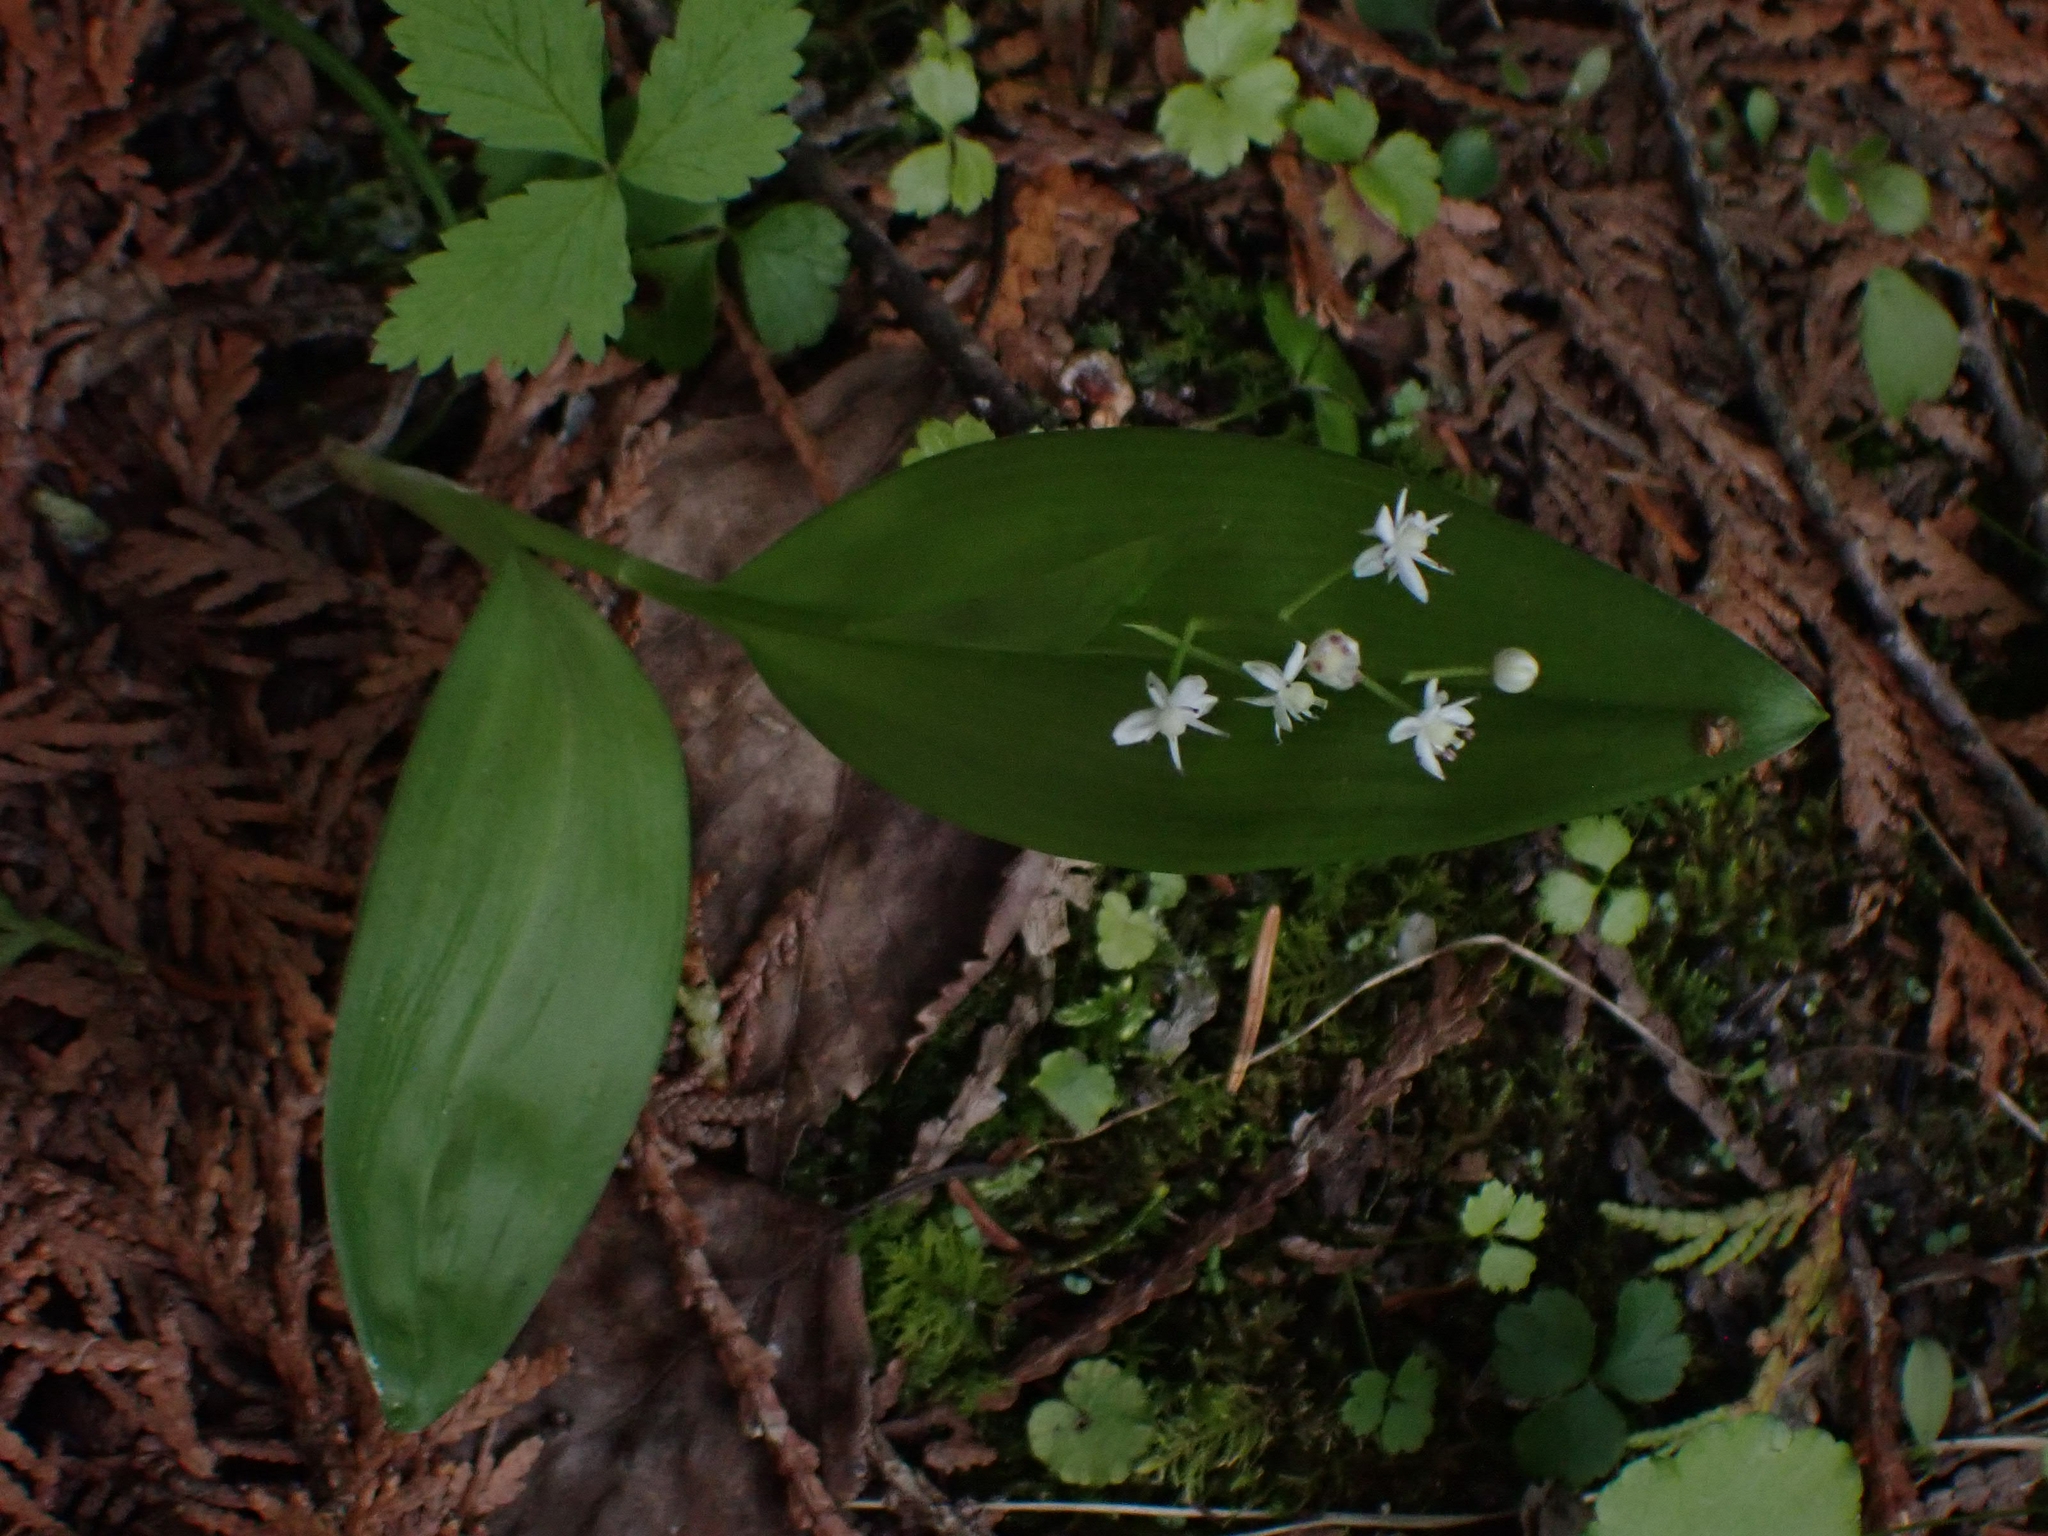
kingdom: Plantae
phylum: Tracheophyta
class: Liliopsida
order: Asparagales
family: Asparagaceae
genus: Maianthemum
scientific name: Maianthemum trifolium
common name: Swamp false solomon's seal
